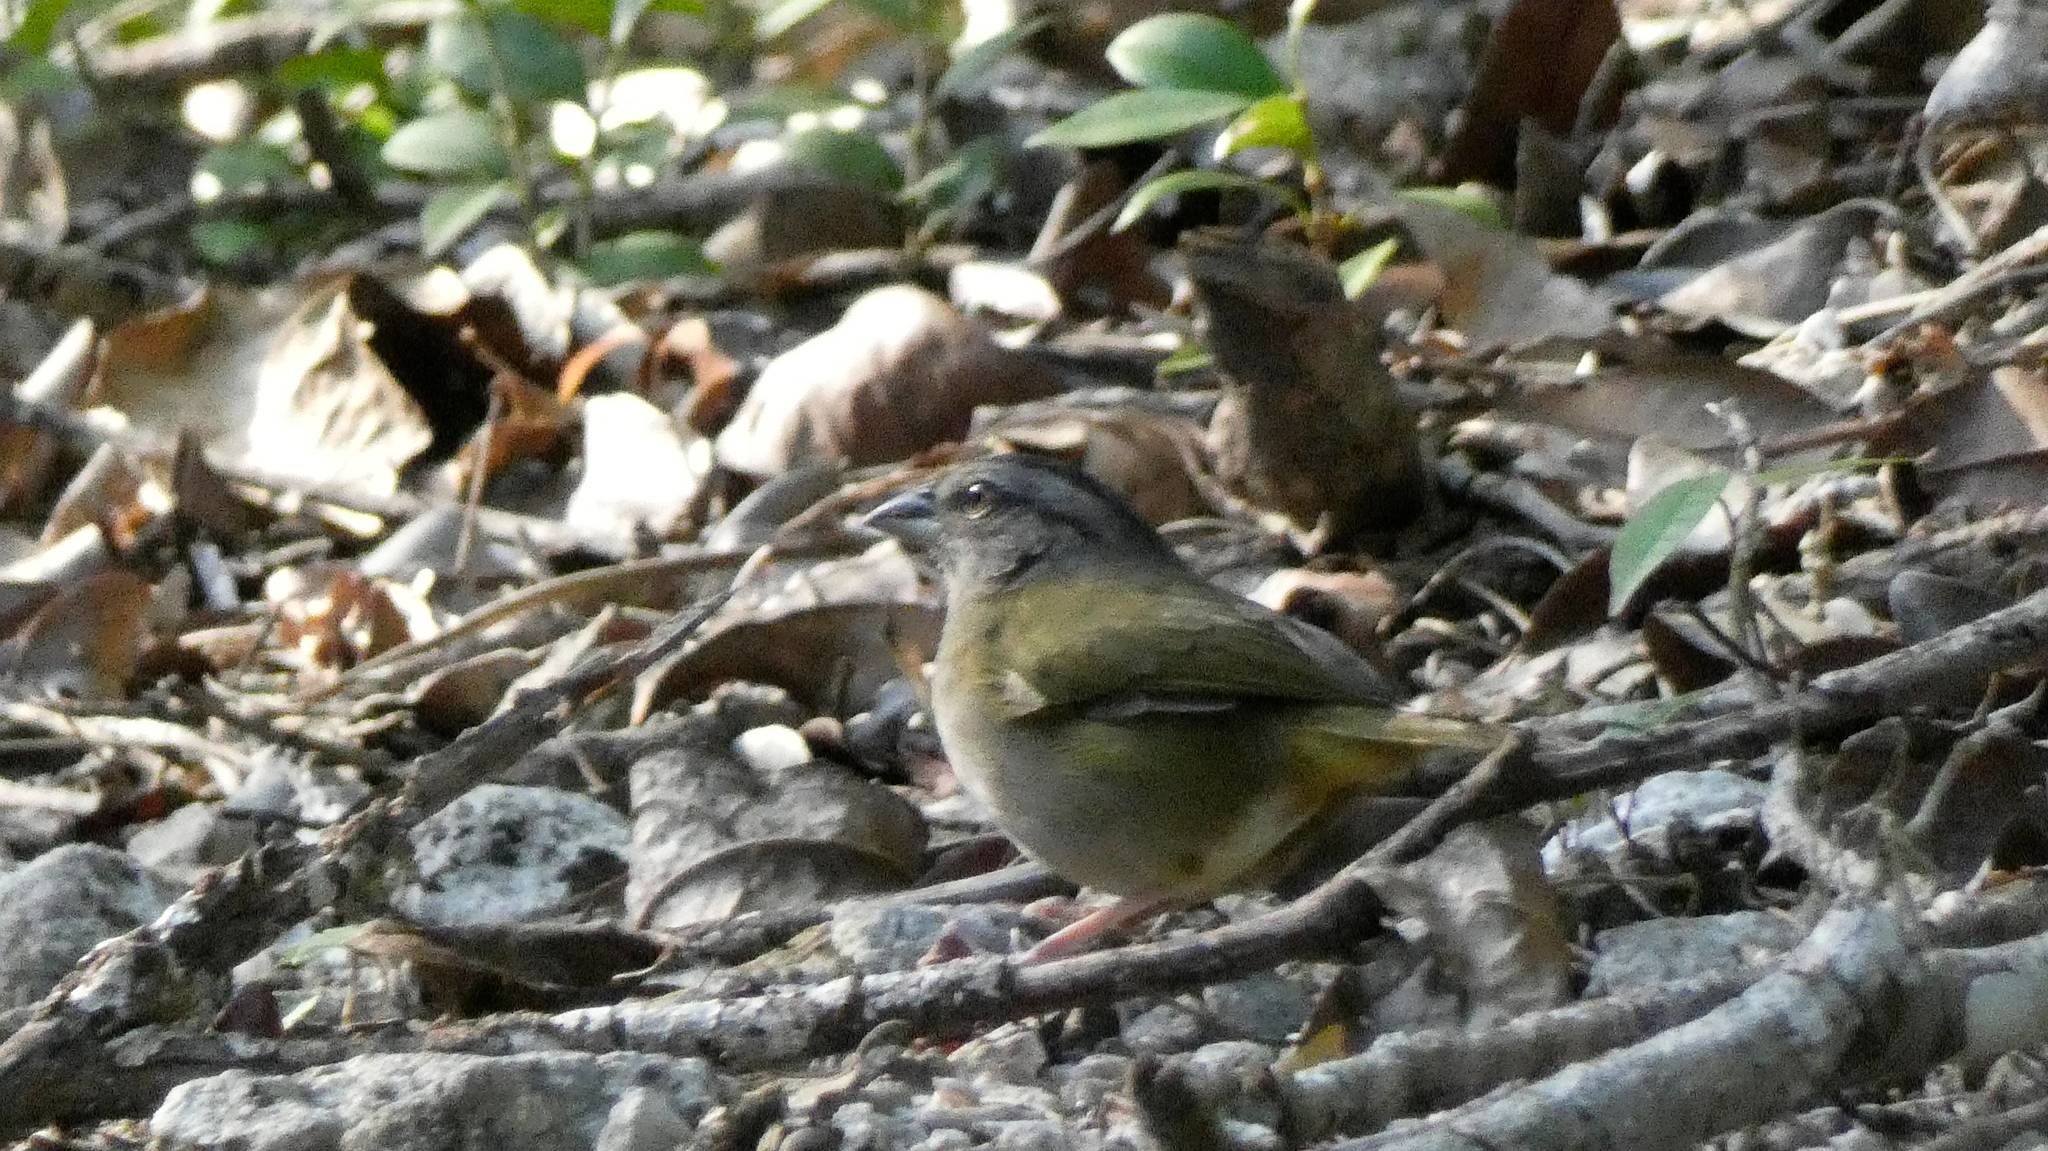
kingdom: Animalia
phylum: Chordata
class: Aves
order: Passeriformes
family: Passerellidae
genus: Arremonops
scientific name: Arremonops chloronotus
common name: Green-backed sparrow
